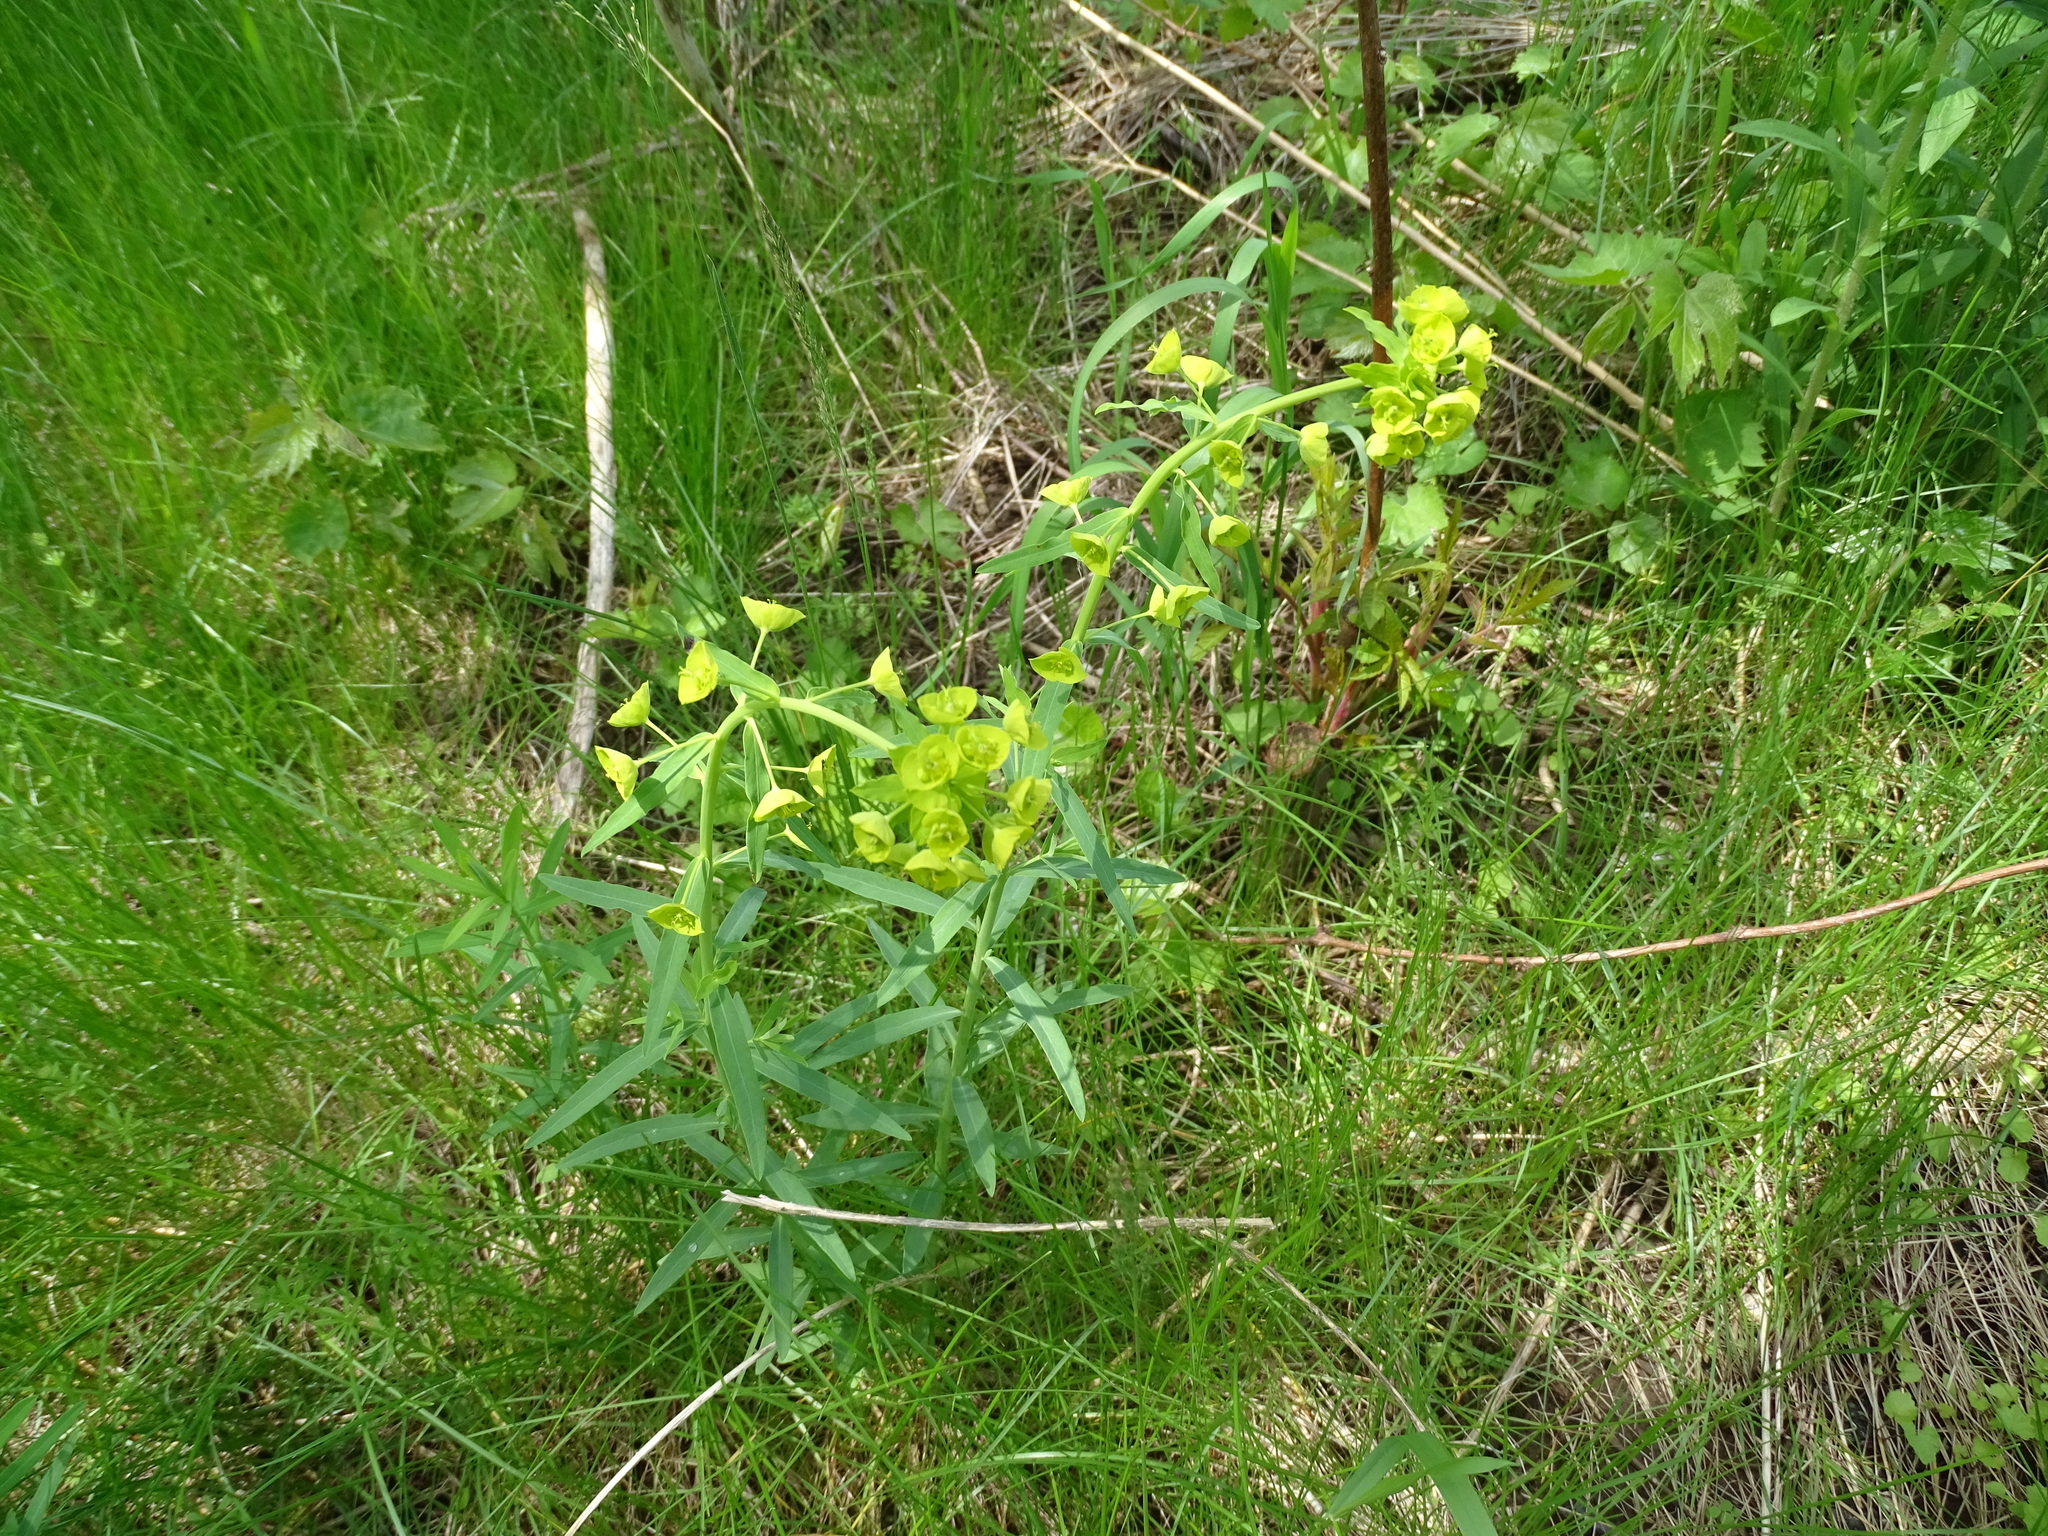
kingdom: Plantae
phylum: Tracheophyta
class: Magnoliopsida
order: Malpighiales
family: Euphorbiaceae
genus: Euphorbia
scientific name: Euphorbia virgata
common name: Leafy spurge
